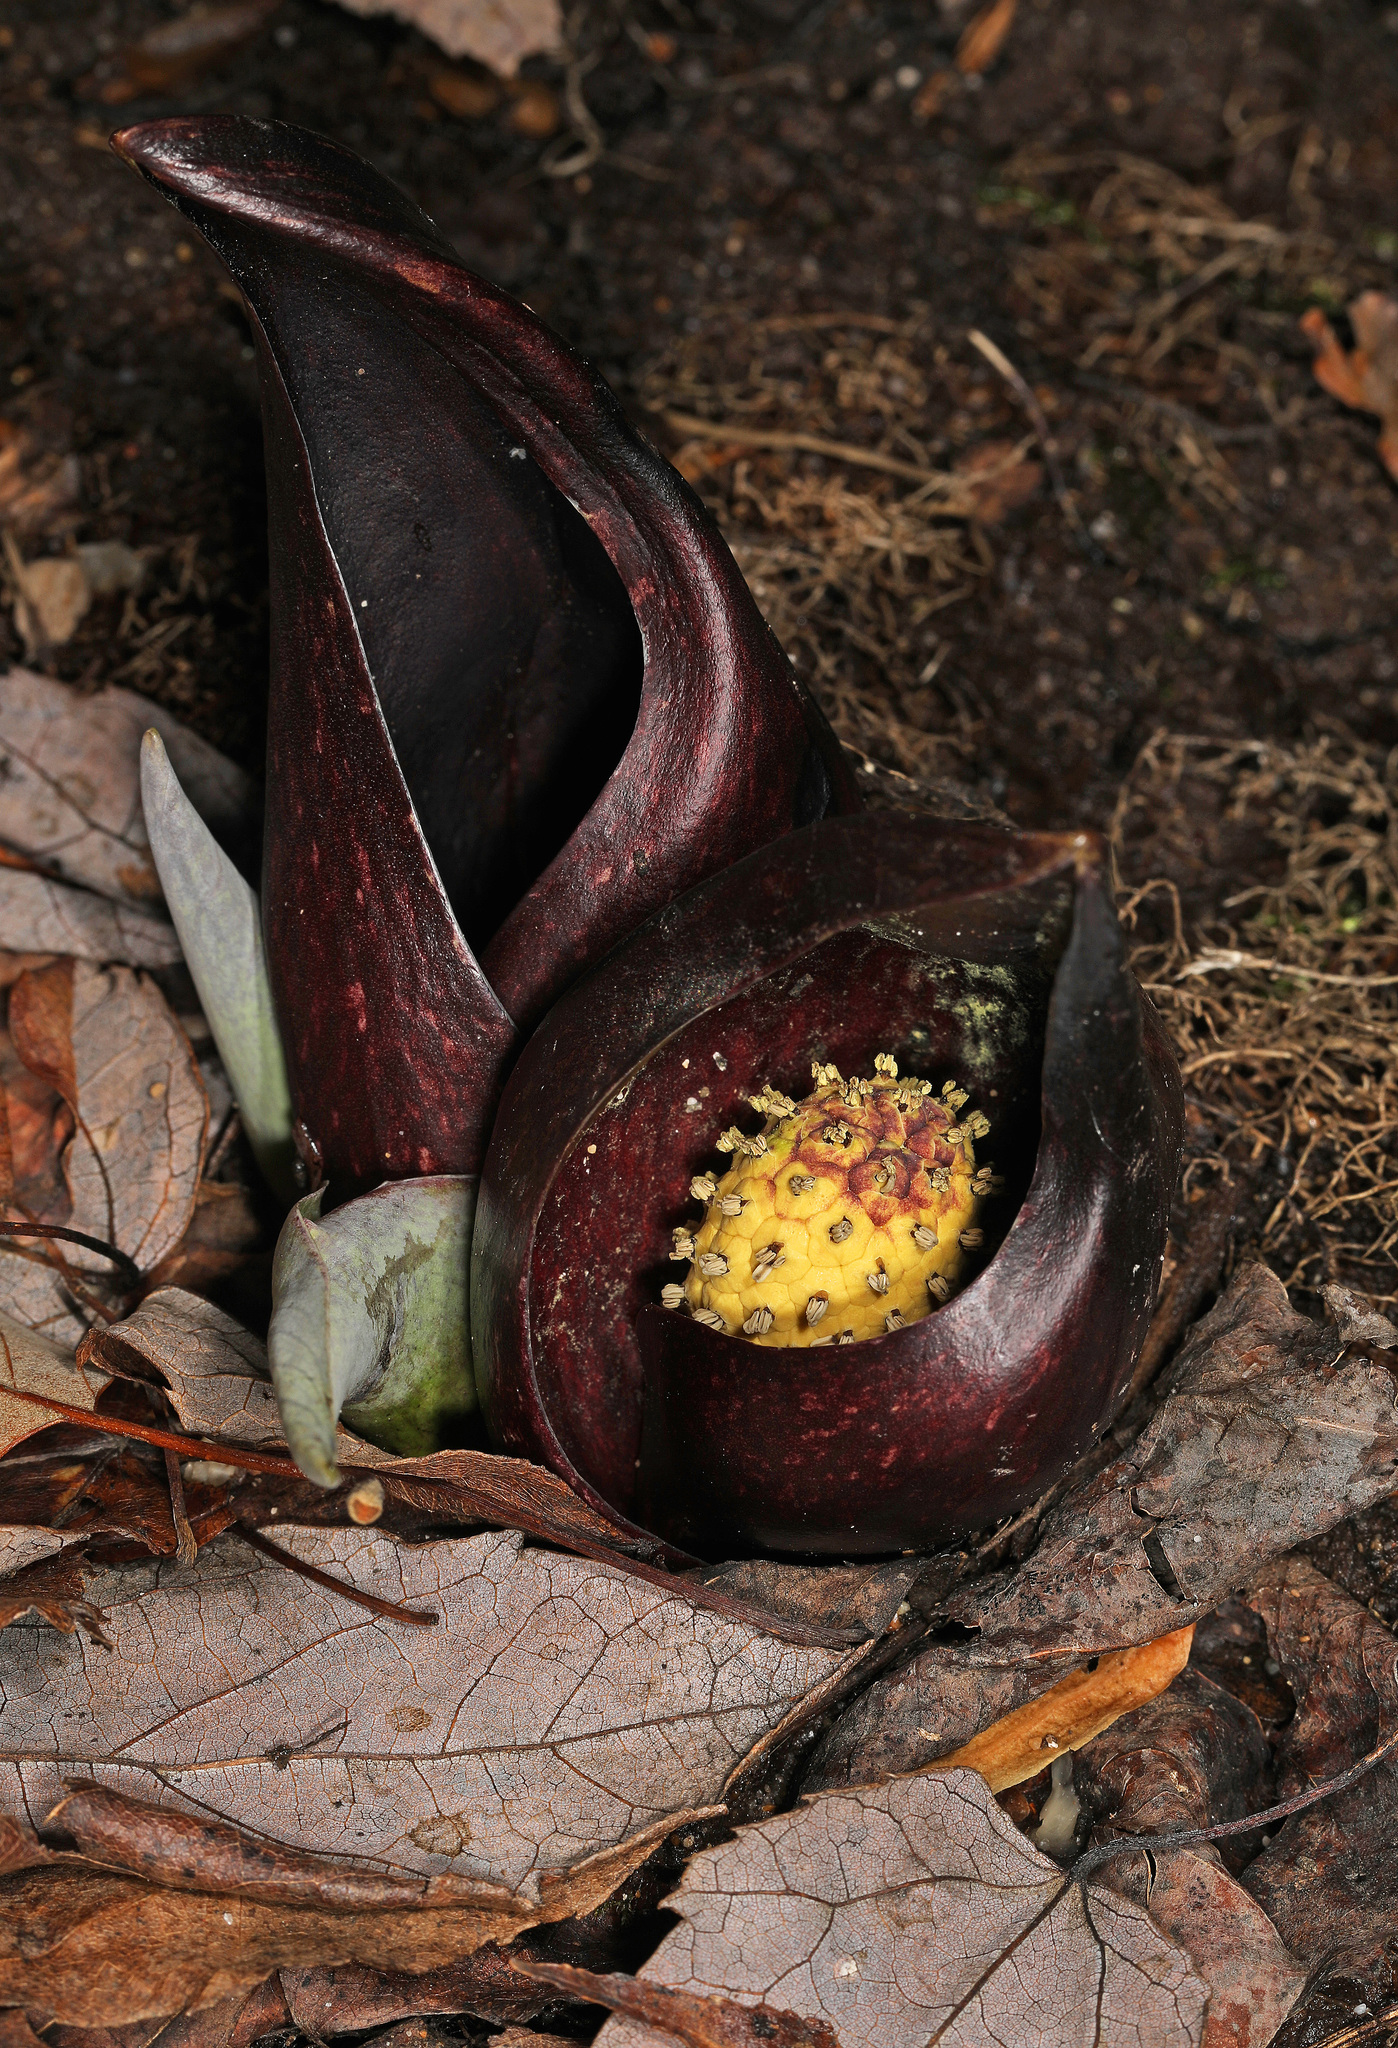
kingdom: Plantae
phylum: Tracheophyta
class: Liliopsida
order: Alismatales
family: Araceae
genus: Symplocarpus
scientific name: Symplocarpus foetidus
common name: Eastern skunk cabbage
